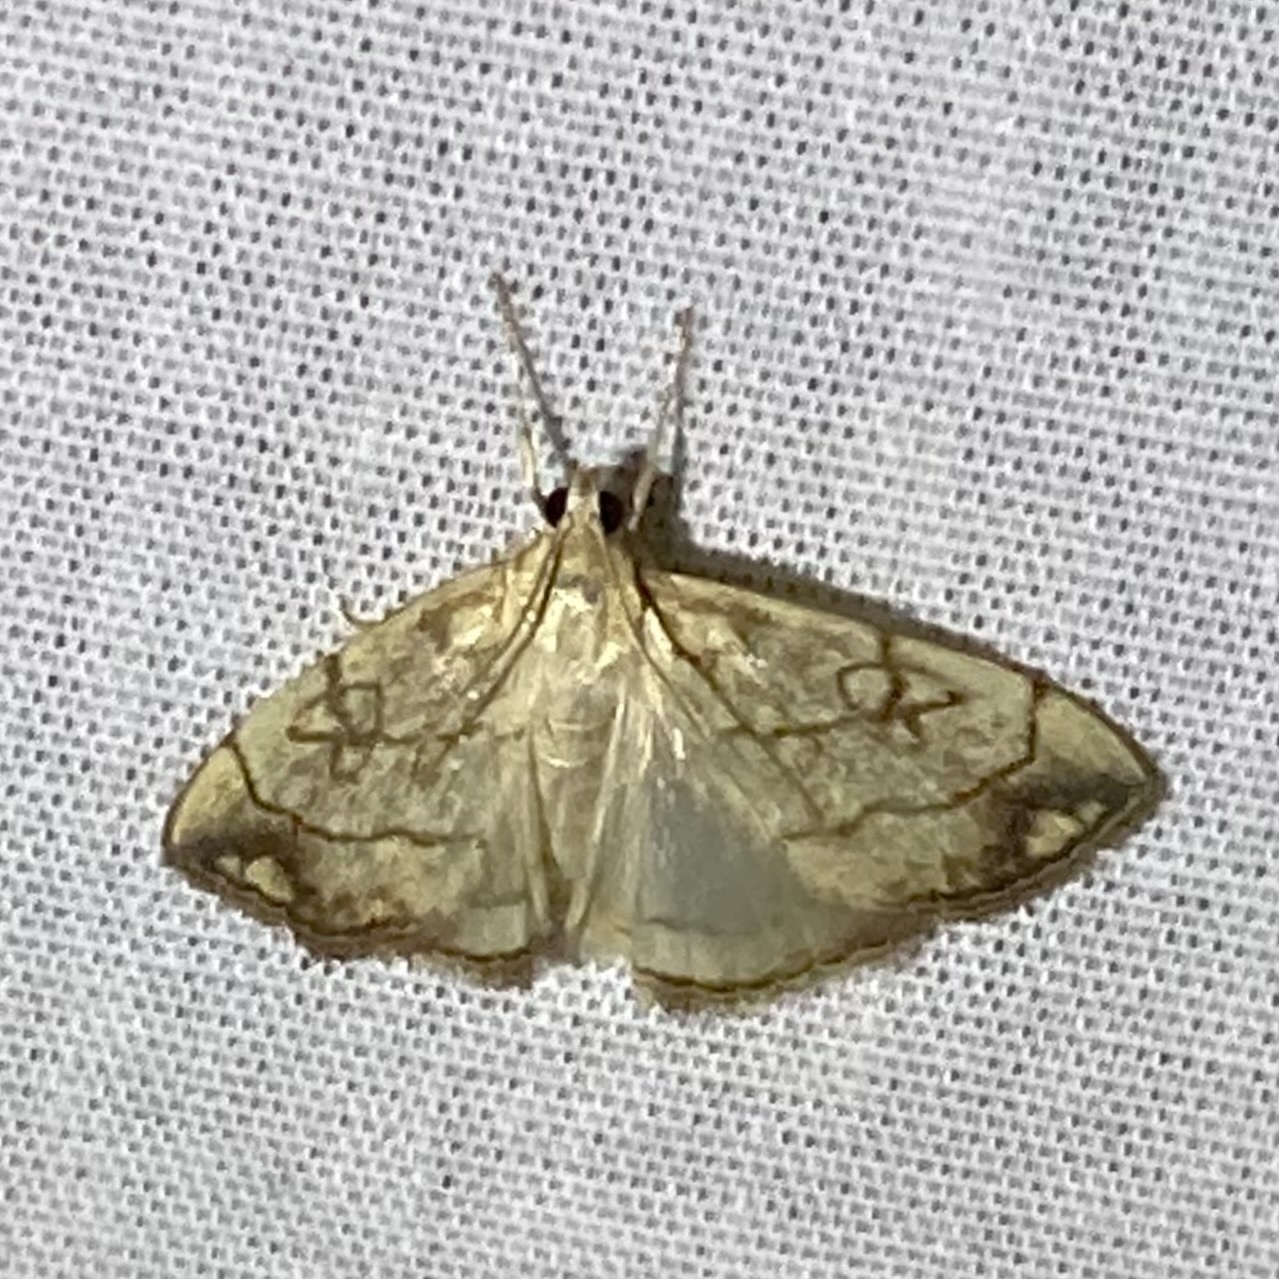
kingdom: Animalia
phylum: Arthropoda
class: Insecta
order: Lepidoptera
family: Crambidae
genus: Evergestis
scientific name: Evergestis pallidata
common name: Chequered pearl
